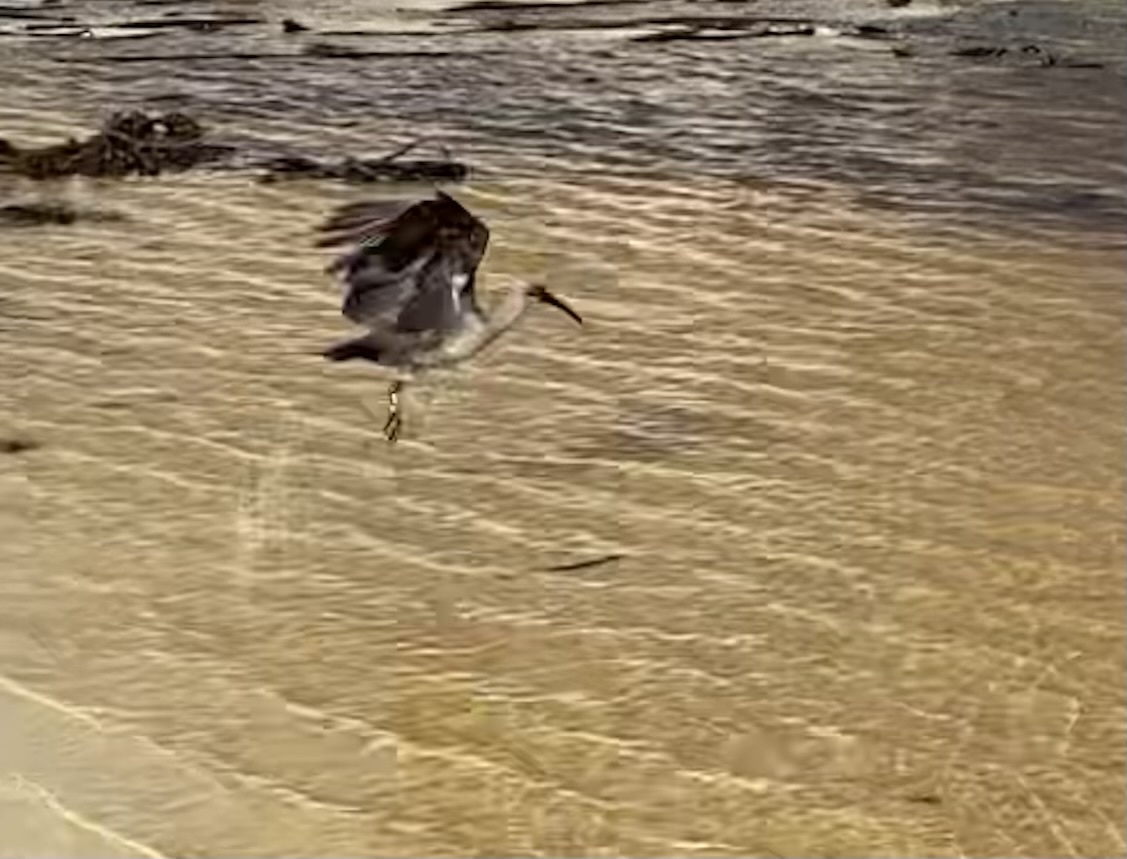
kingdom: Animalia
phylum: Chordata
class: Aves
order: Pelecaniformes
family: Threskiornithidae
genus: Bostrychia
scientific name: Bostrychia hagedash
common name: Hadada ibis
